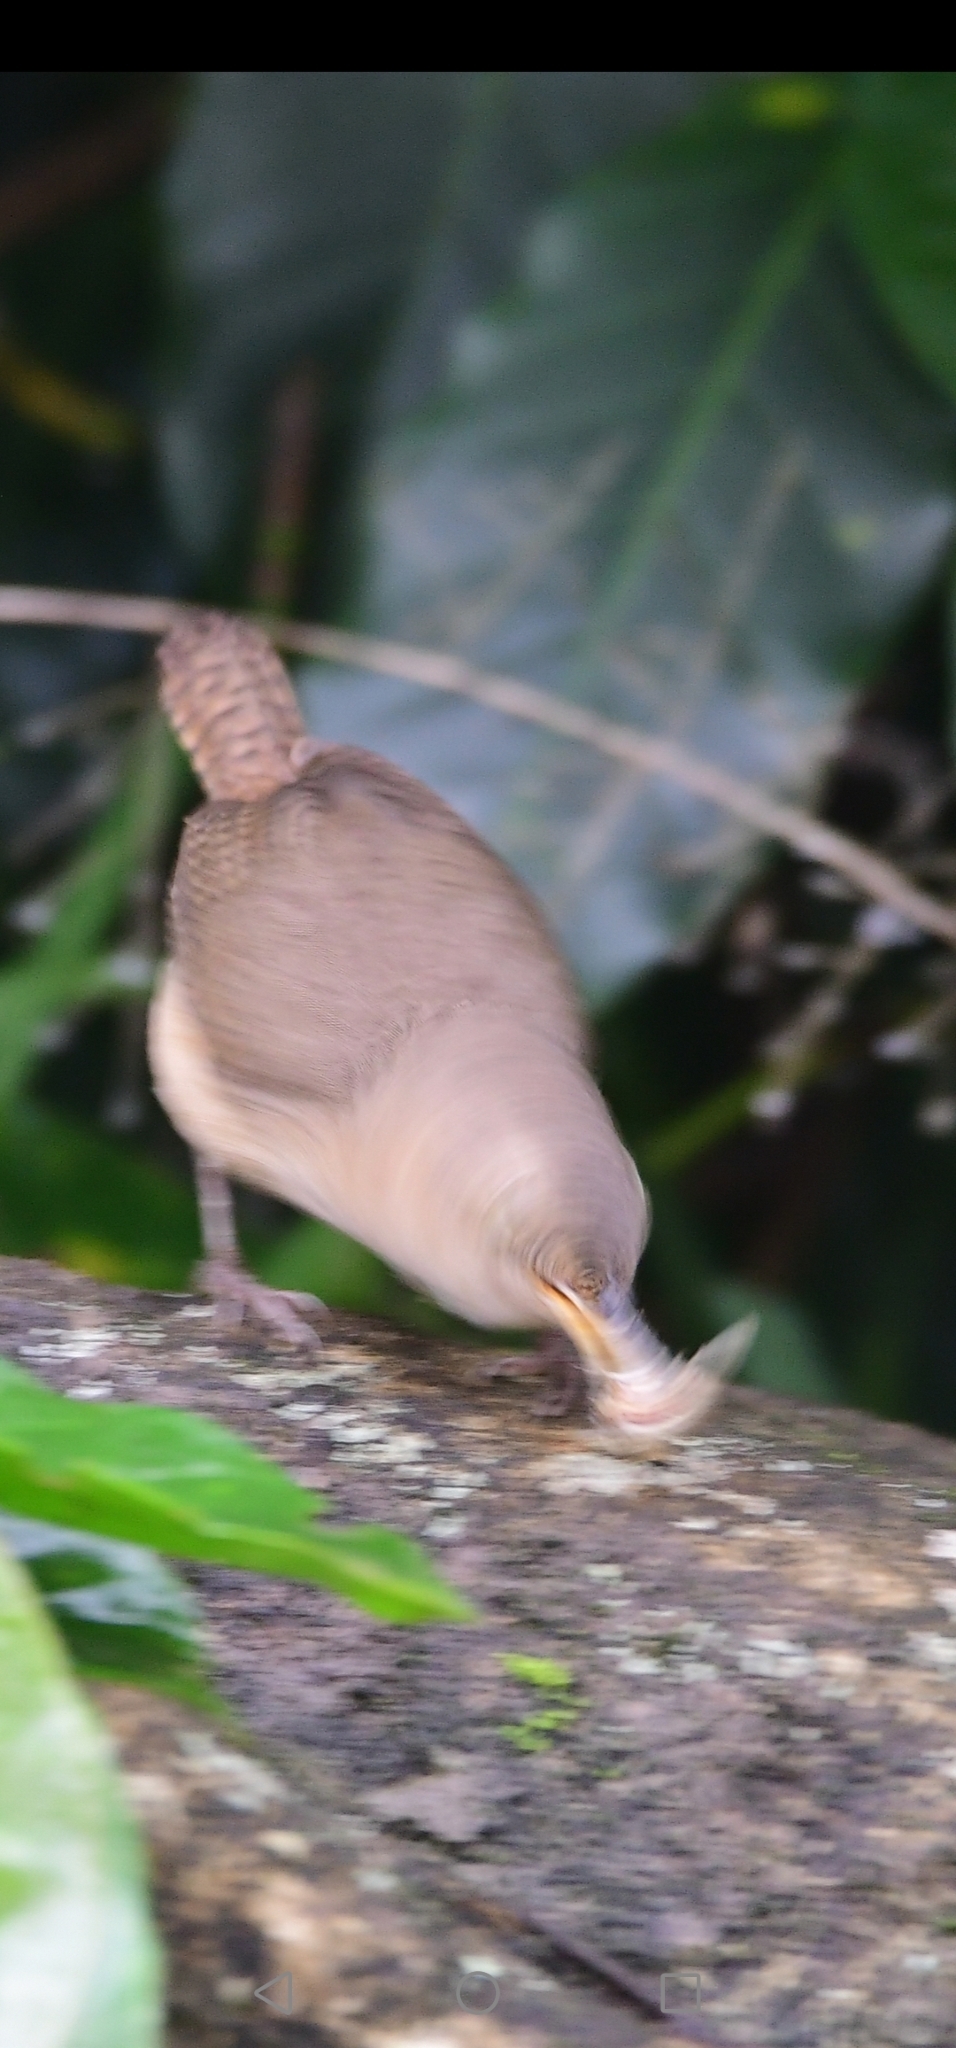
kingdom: Animalia
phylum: Chordata
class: Aves
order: Passeriformes
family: Troglodytidae
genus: Troglodytes
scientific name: Troglodytes aedon
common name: House wren
